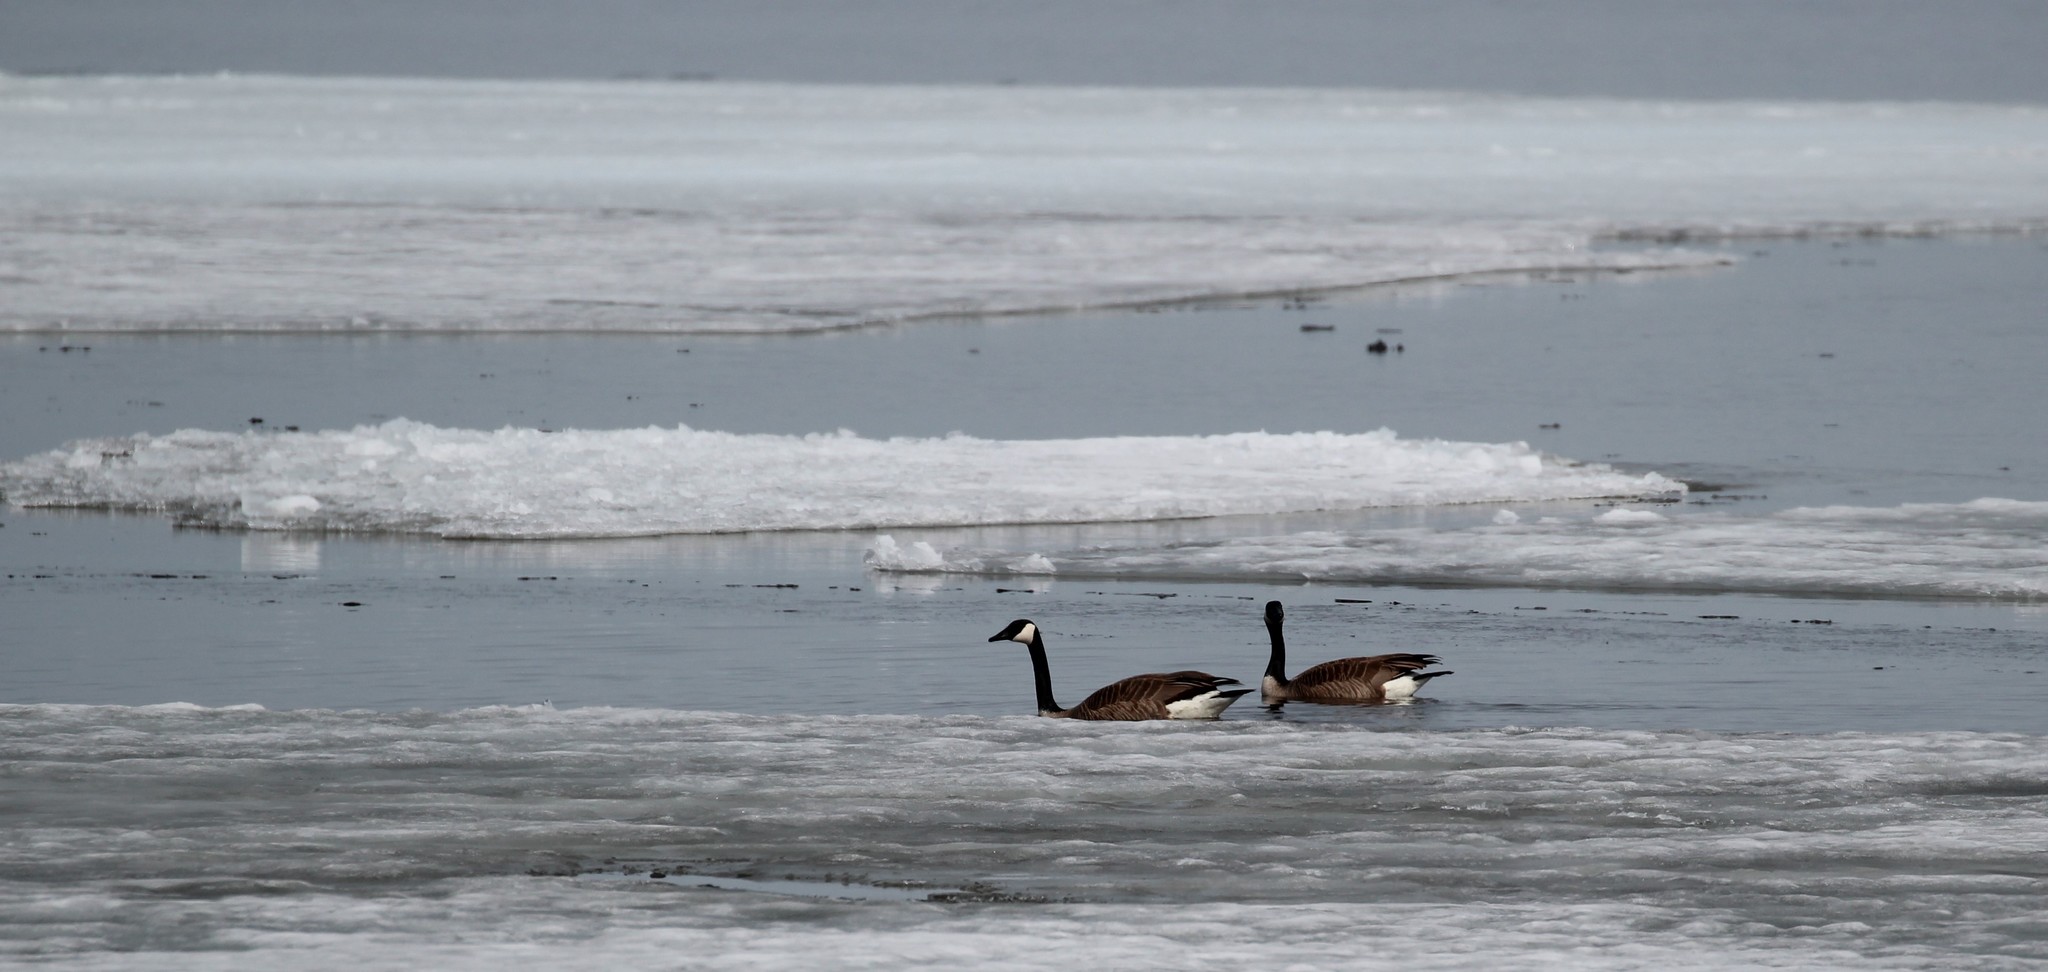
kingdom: Animalia
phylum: Chordata
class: Aves
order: Anseriformes
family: Anatidae
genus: Branta
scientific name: Branta canadensis
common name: Canada goose
